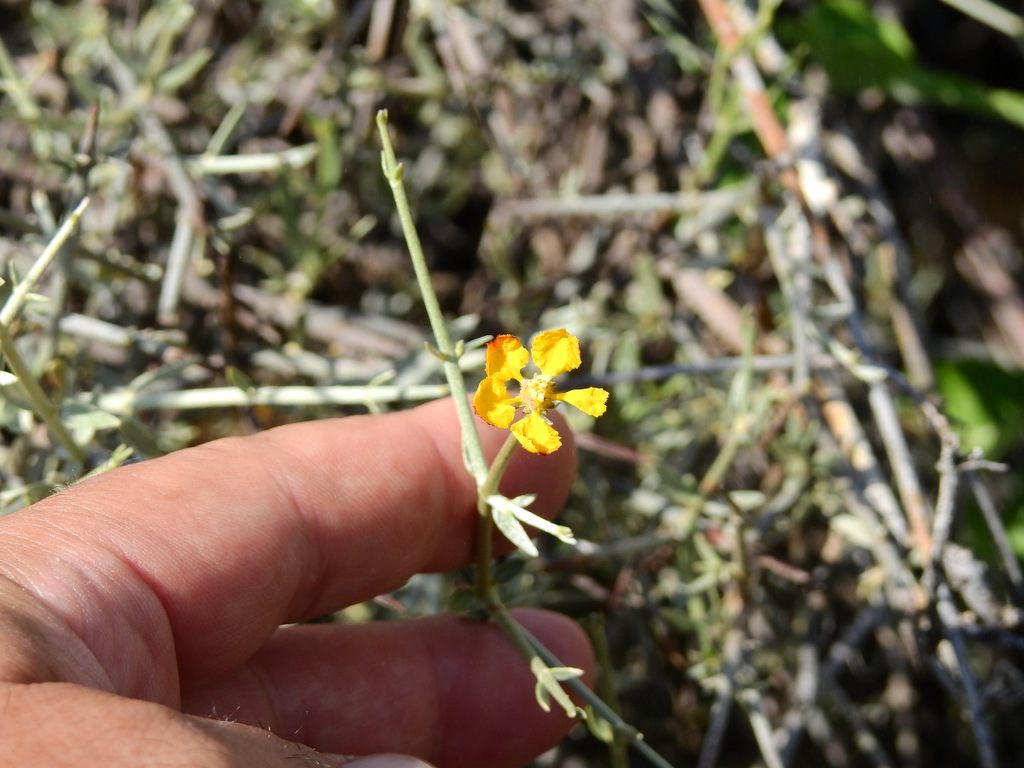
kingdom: Plantae
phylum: Tracheophyta
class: Magnoliopsida
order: Malpighiales
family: Malpighiaceae
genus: Tricomaria
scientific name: Tricomaria usillo
